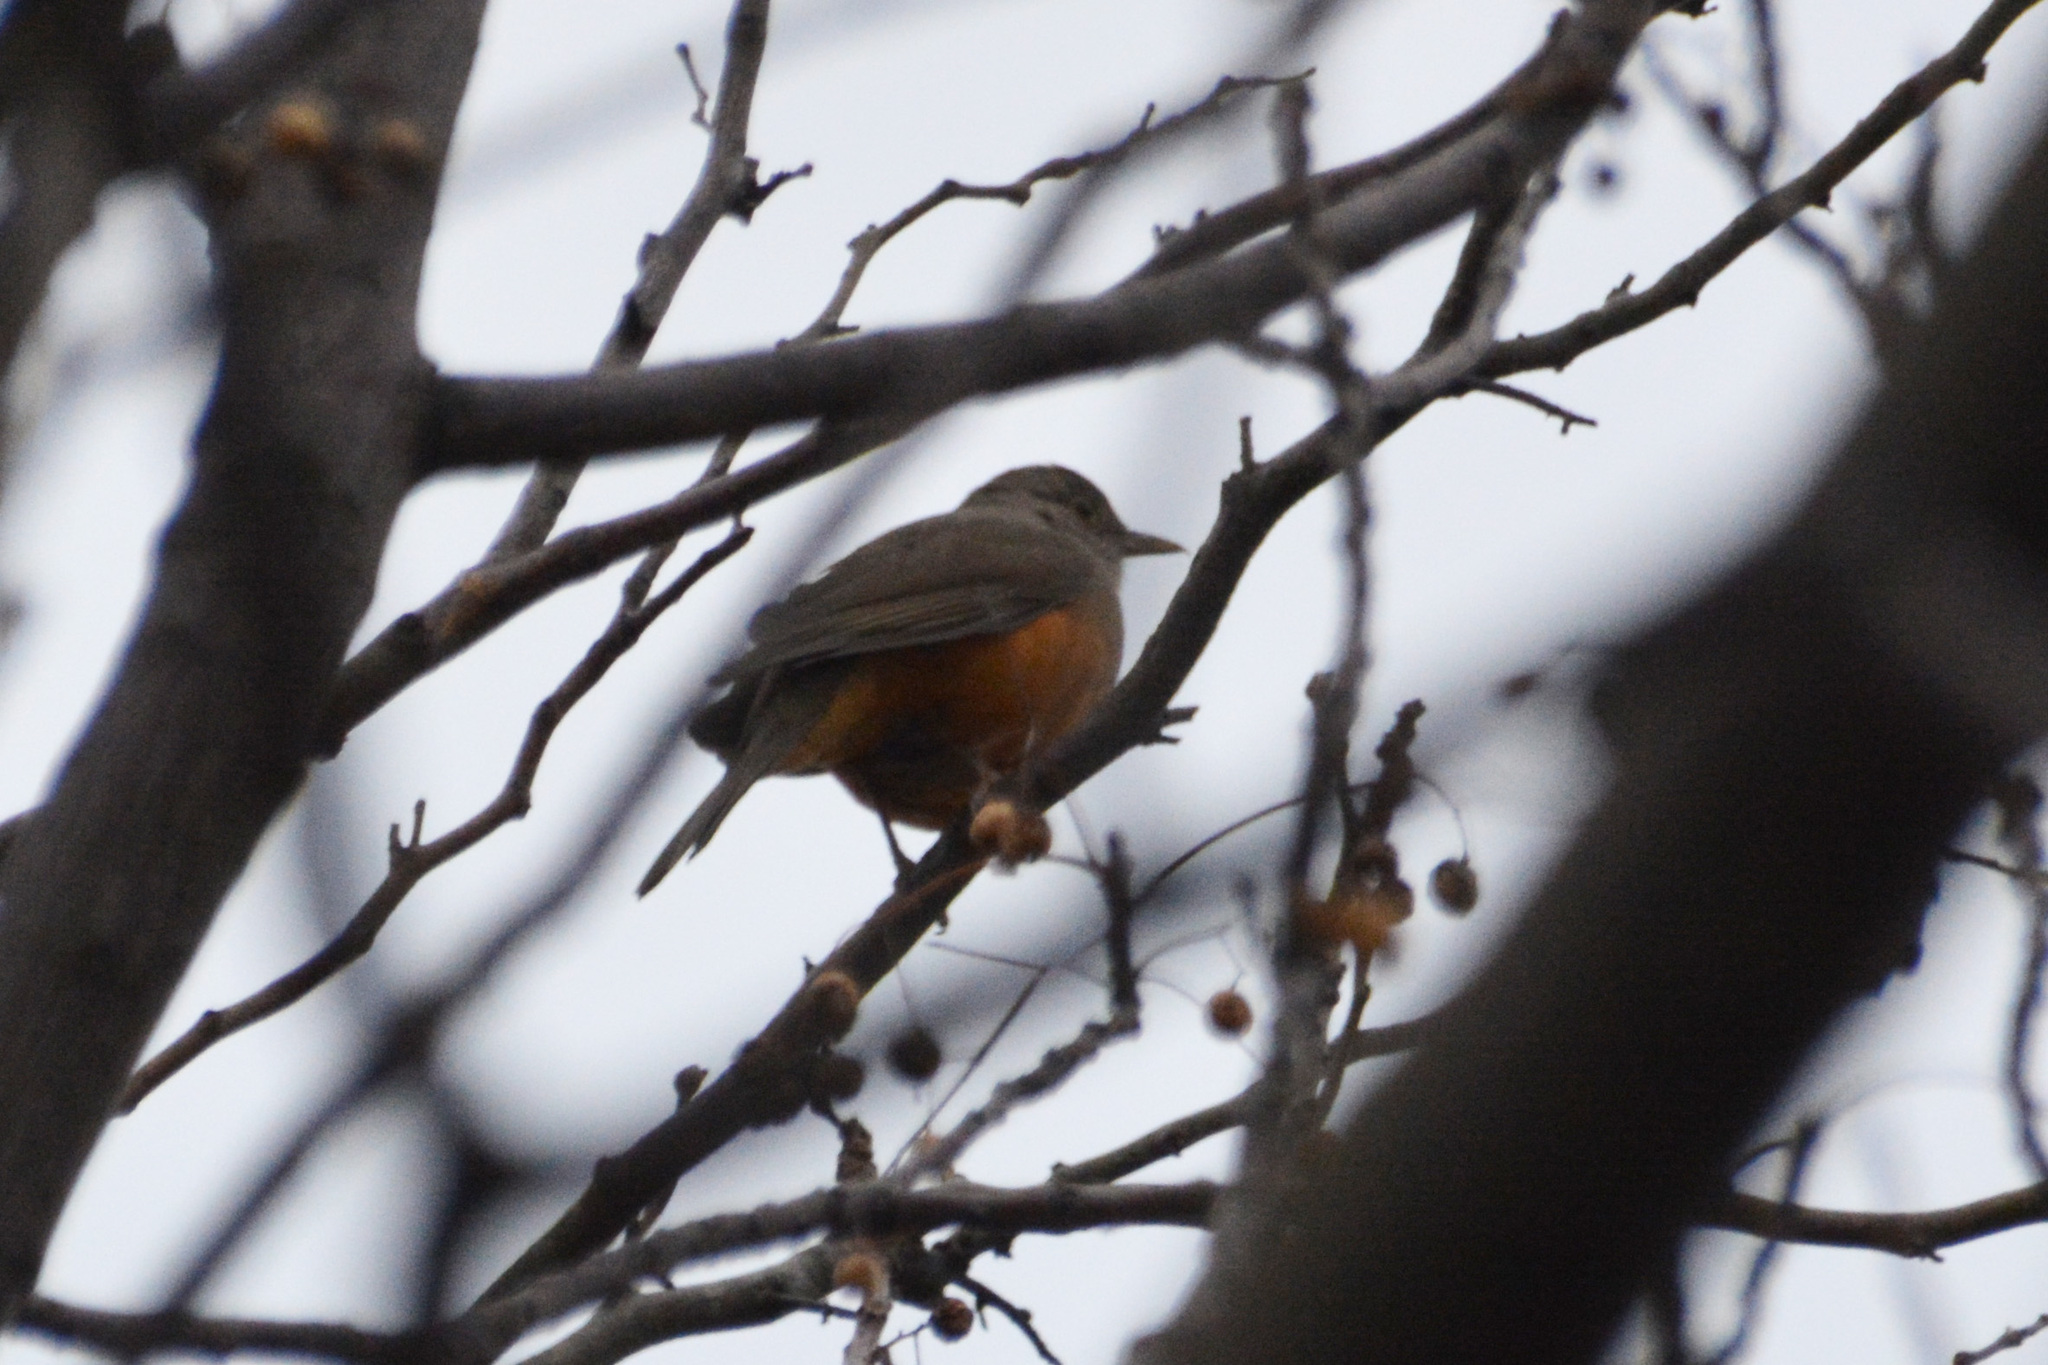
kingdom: Animalia
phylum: Chordata
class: Aves
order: Passeriformes
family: Turdidae
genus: Turdus
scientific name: Turdus rufiventris
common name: Rufous-bellied thrush
